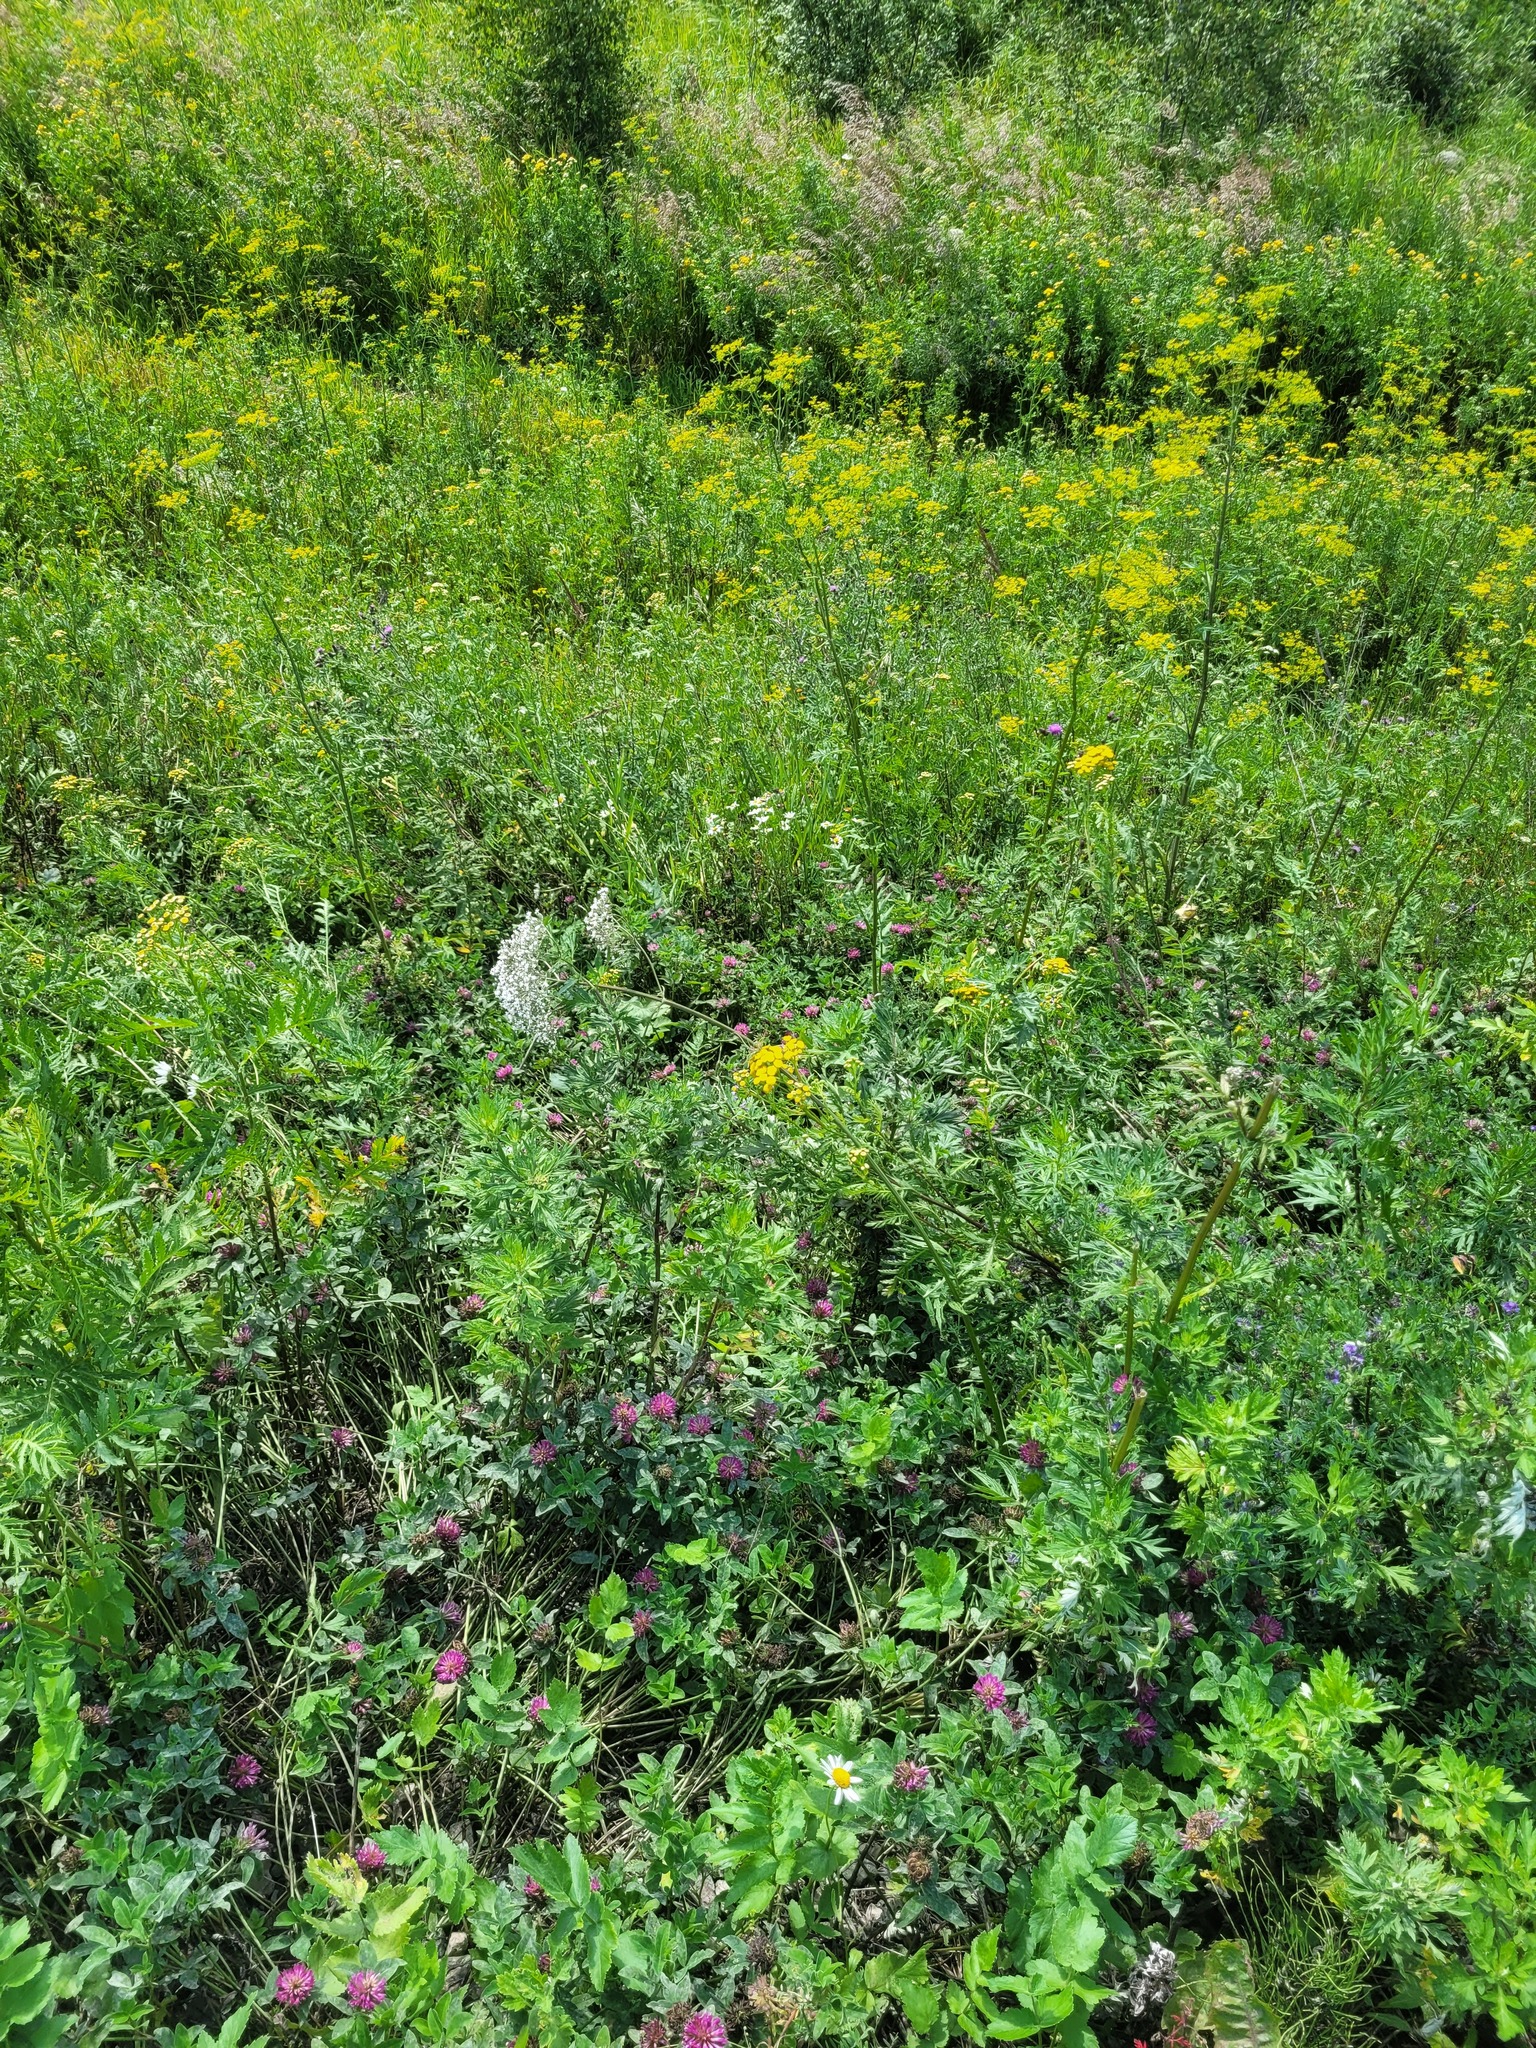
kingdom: Plantae
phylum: Tracheophyta
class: Magnoliopsida
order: Dipsacales
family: Caprifoliaceae
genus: Valeriana
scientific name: Valeriana officinalis
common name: Common valerian
